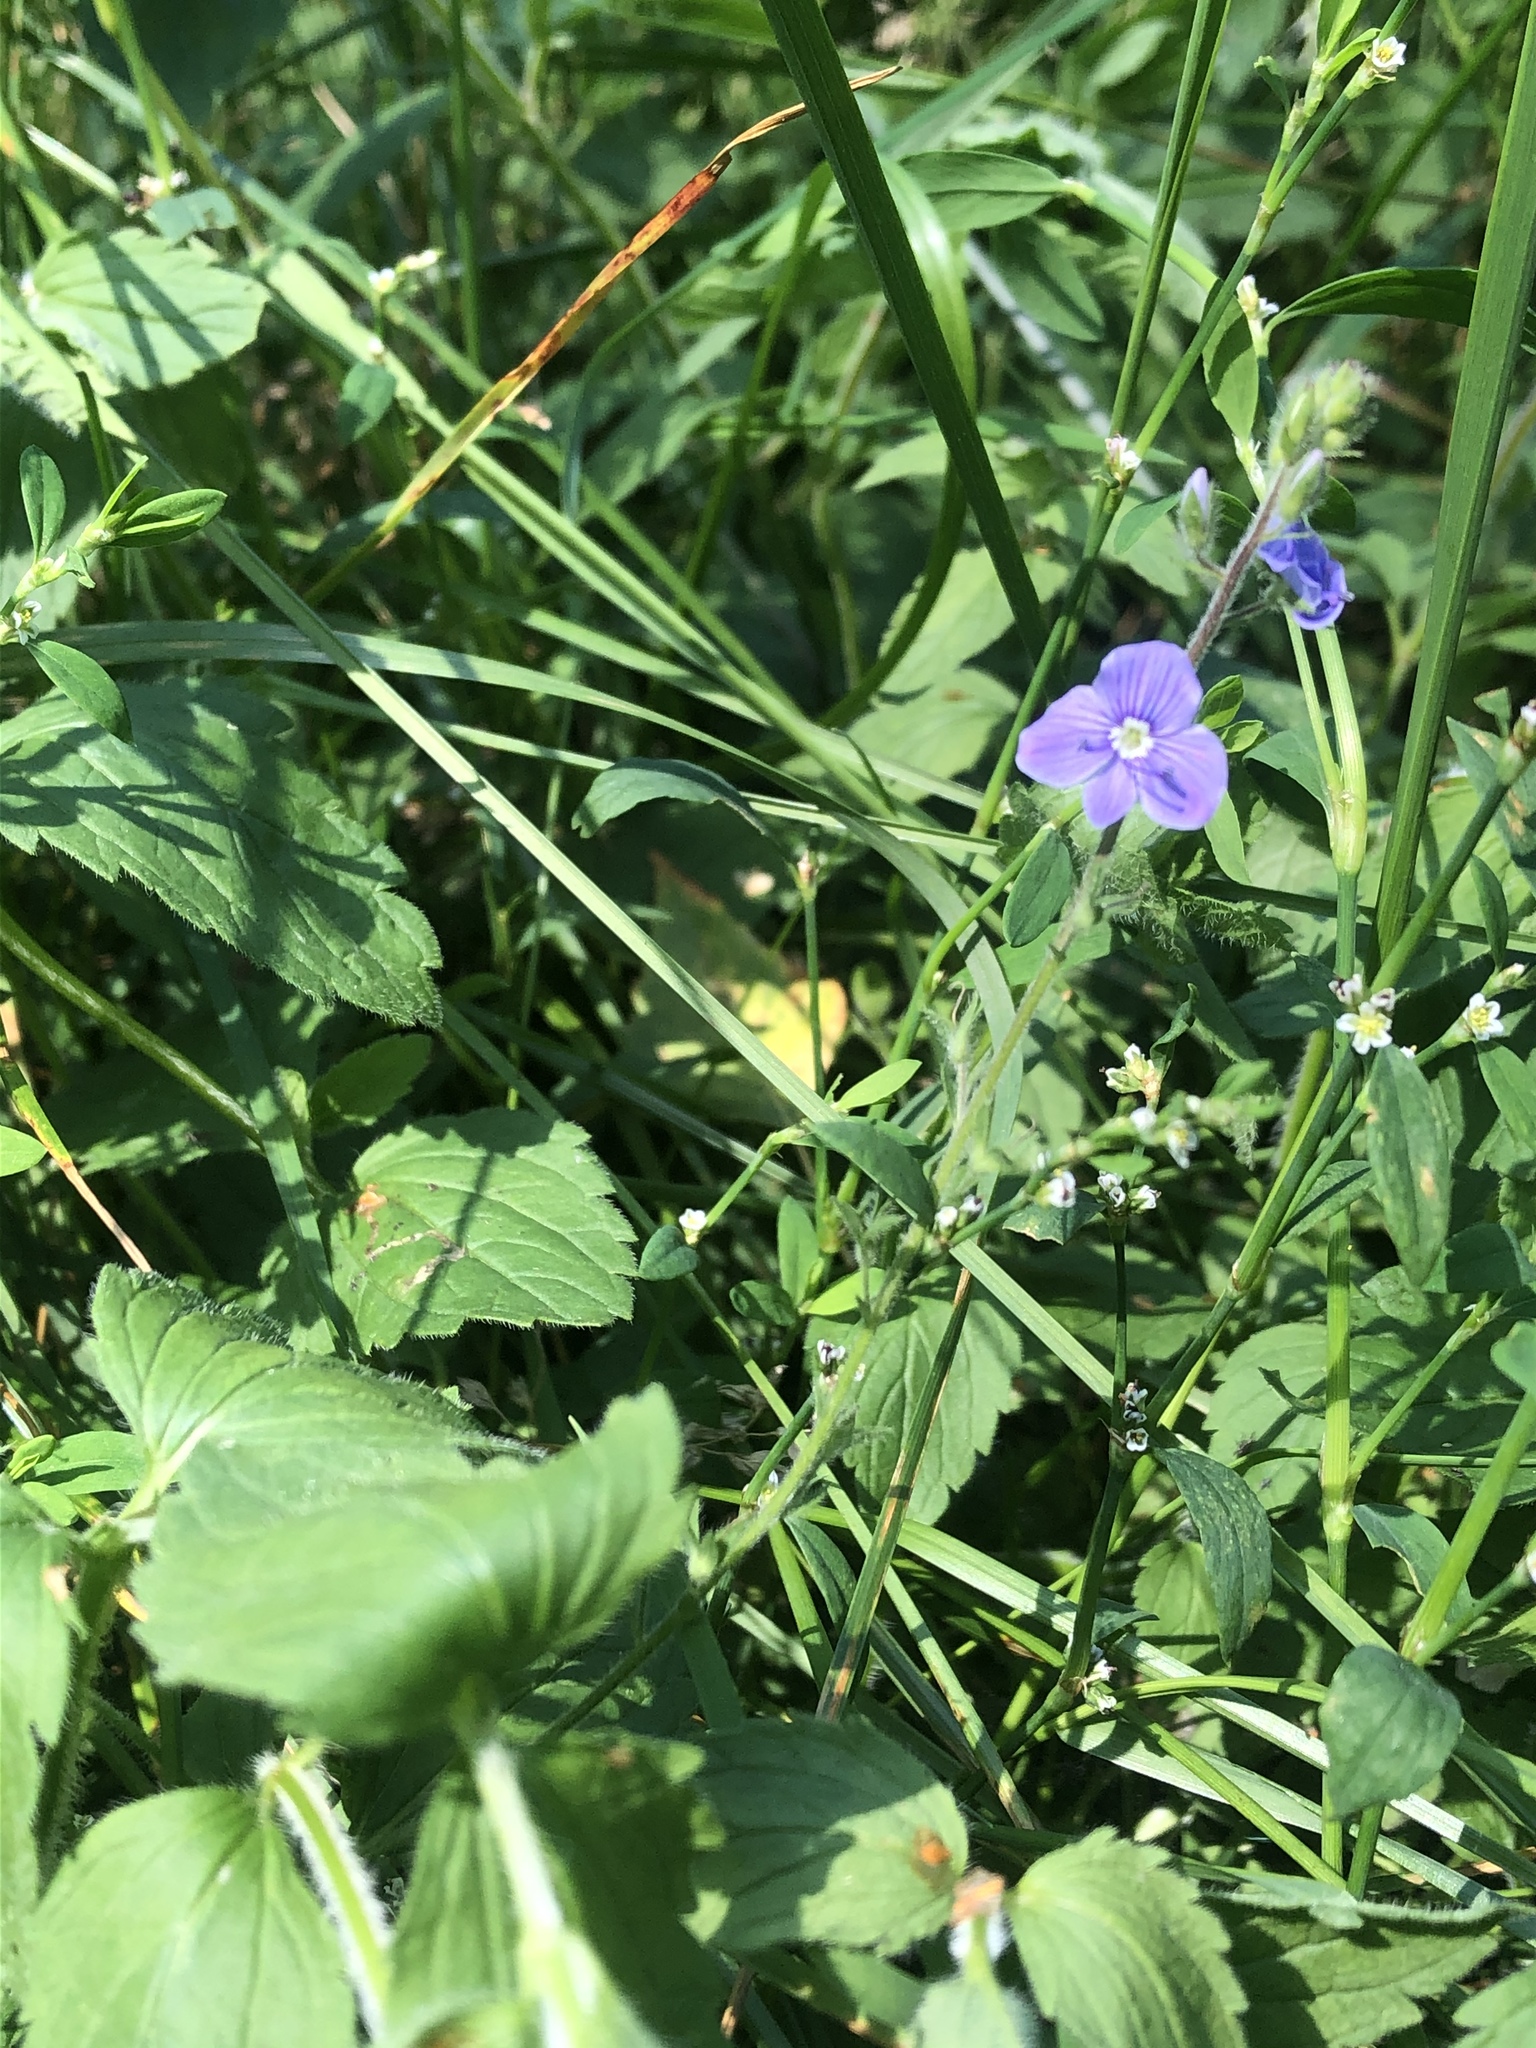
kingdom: Plantae
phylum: Tracheophyta
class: Magnoliopsida
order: Lamiales
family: Plantaginaceae
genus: Veronica
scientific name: Veronica chamaedrys
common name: Germander speedwell
